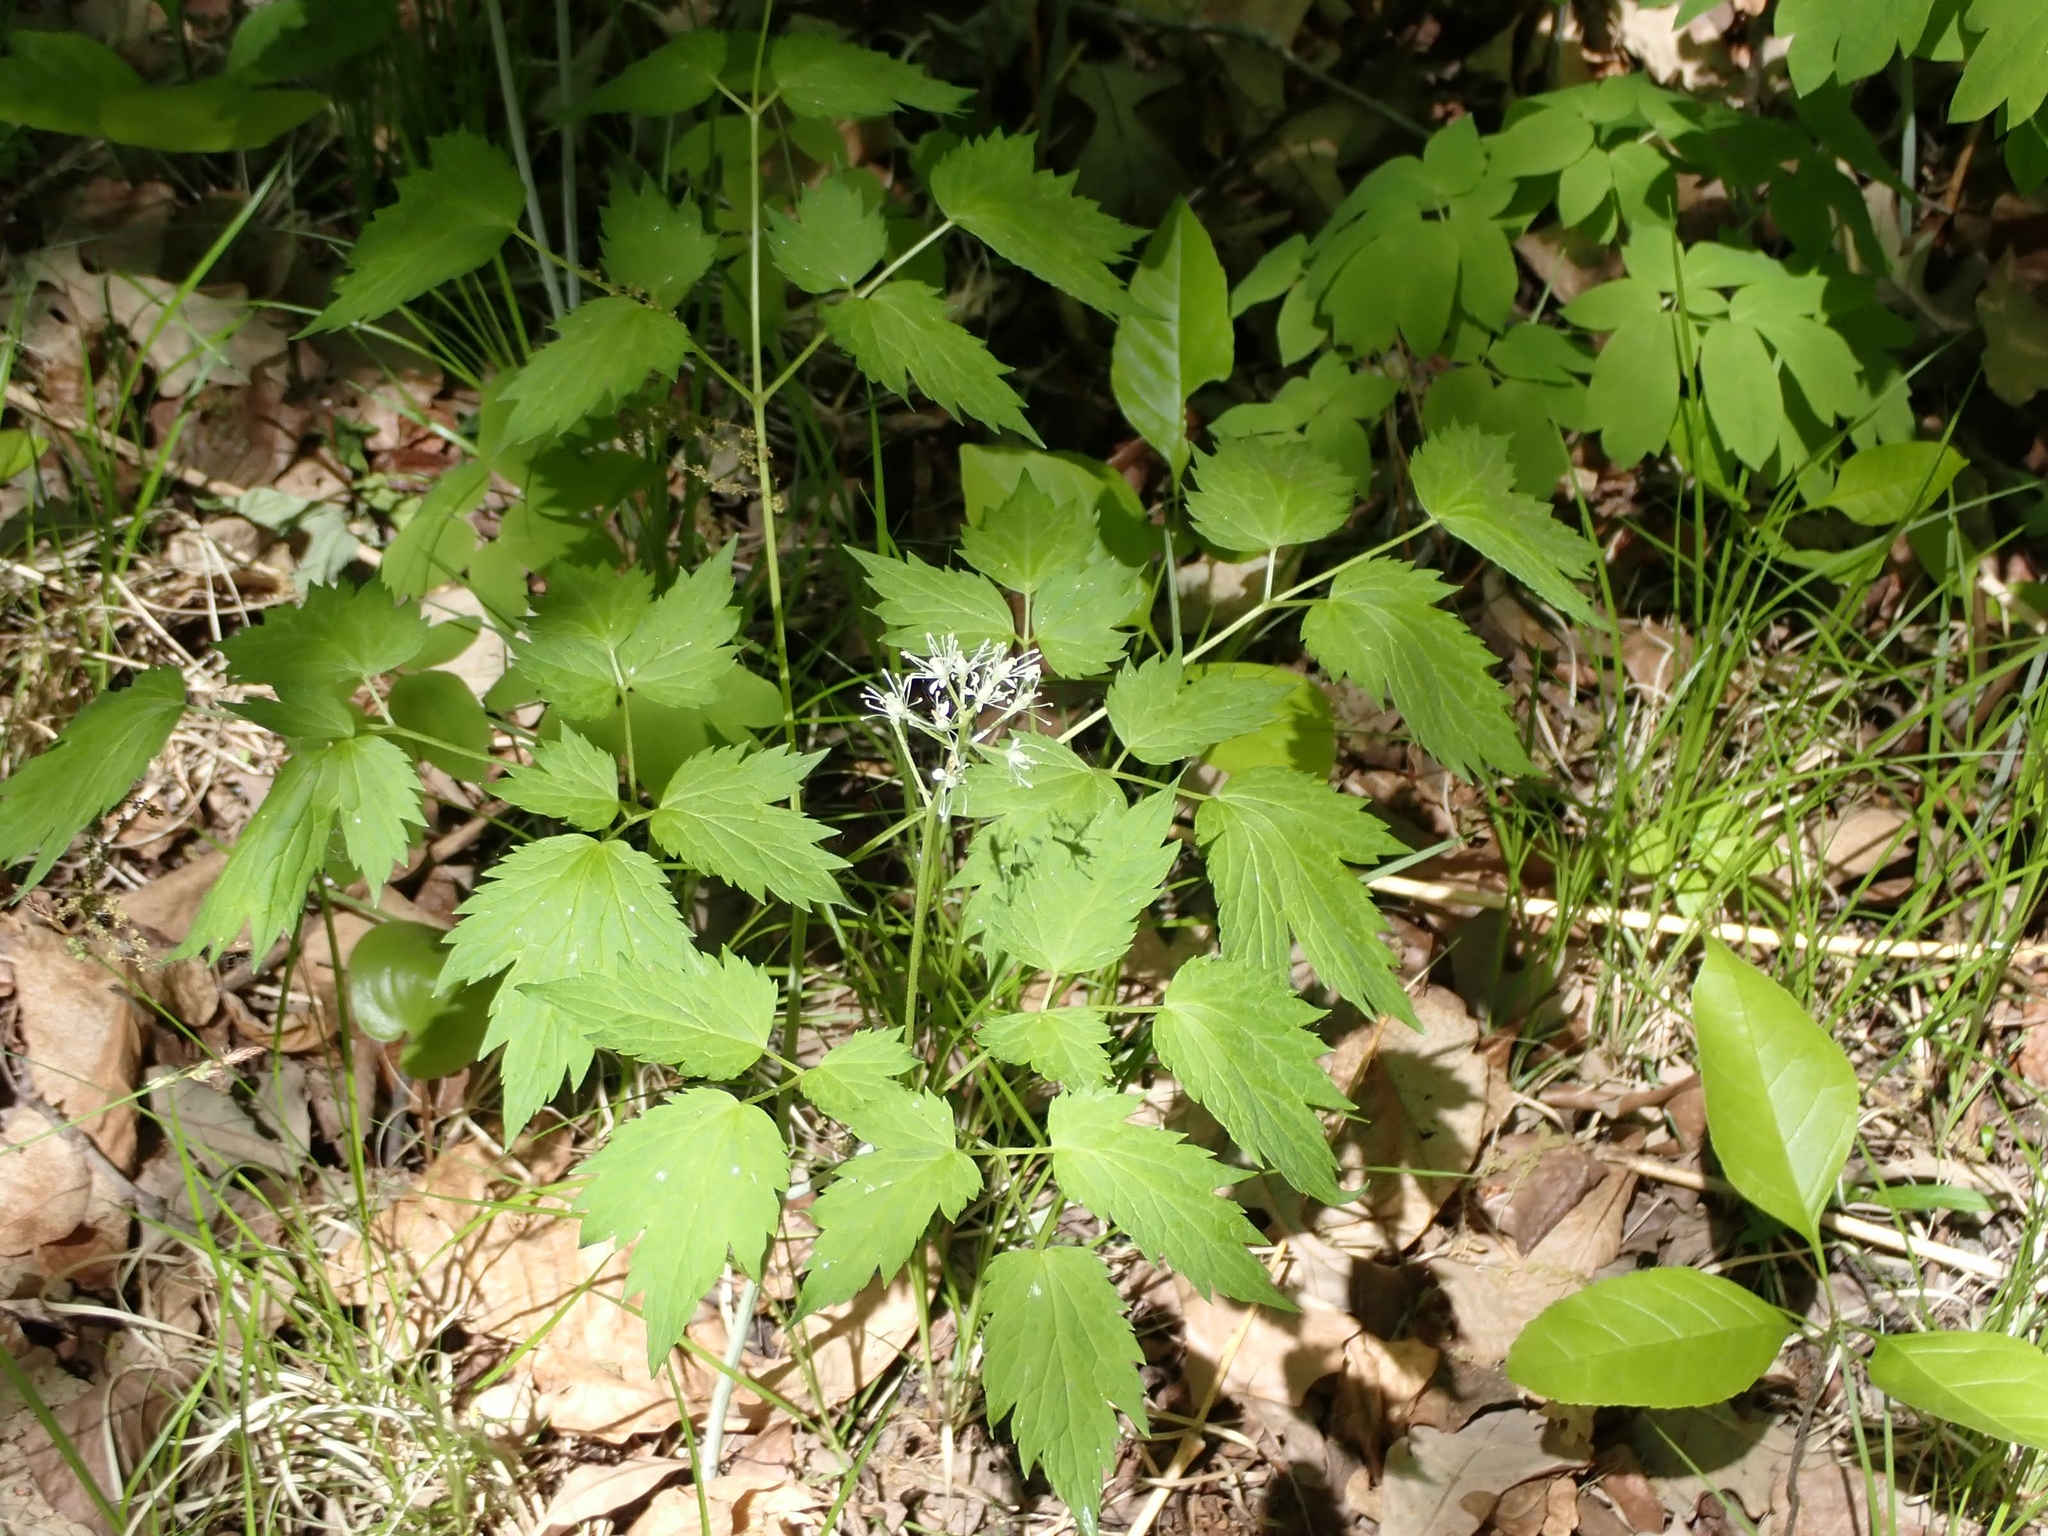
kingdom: Plantae
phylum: Tracheophyta
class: Magnoliopsida
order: Ranunculales
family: Ranunculaceae
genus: Actaea
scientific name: Actaea rubra
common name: Red baneberry
